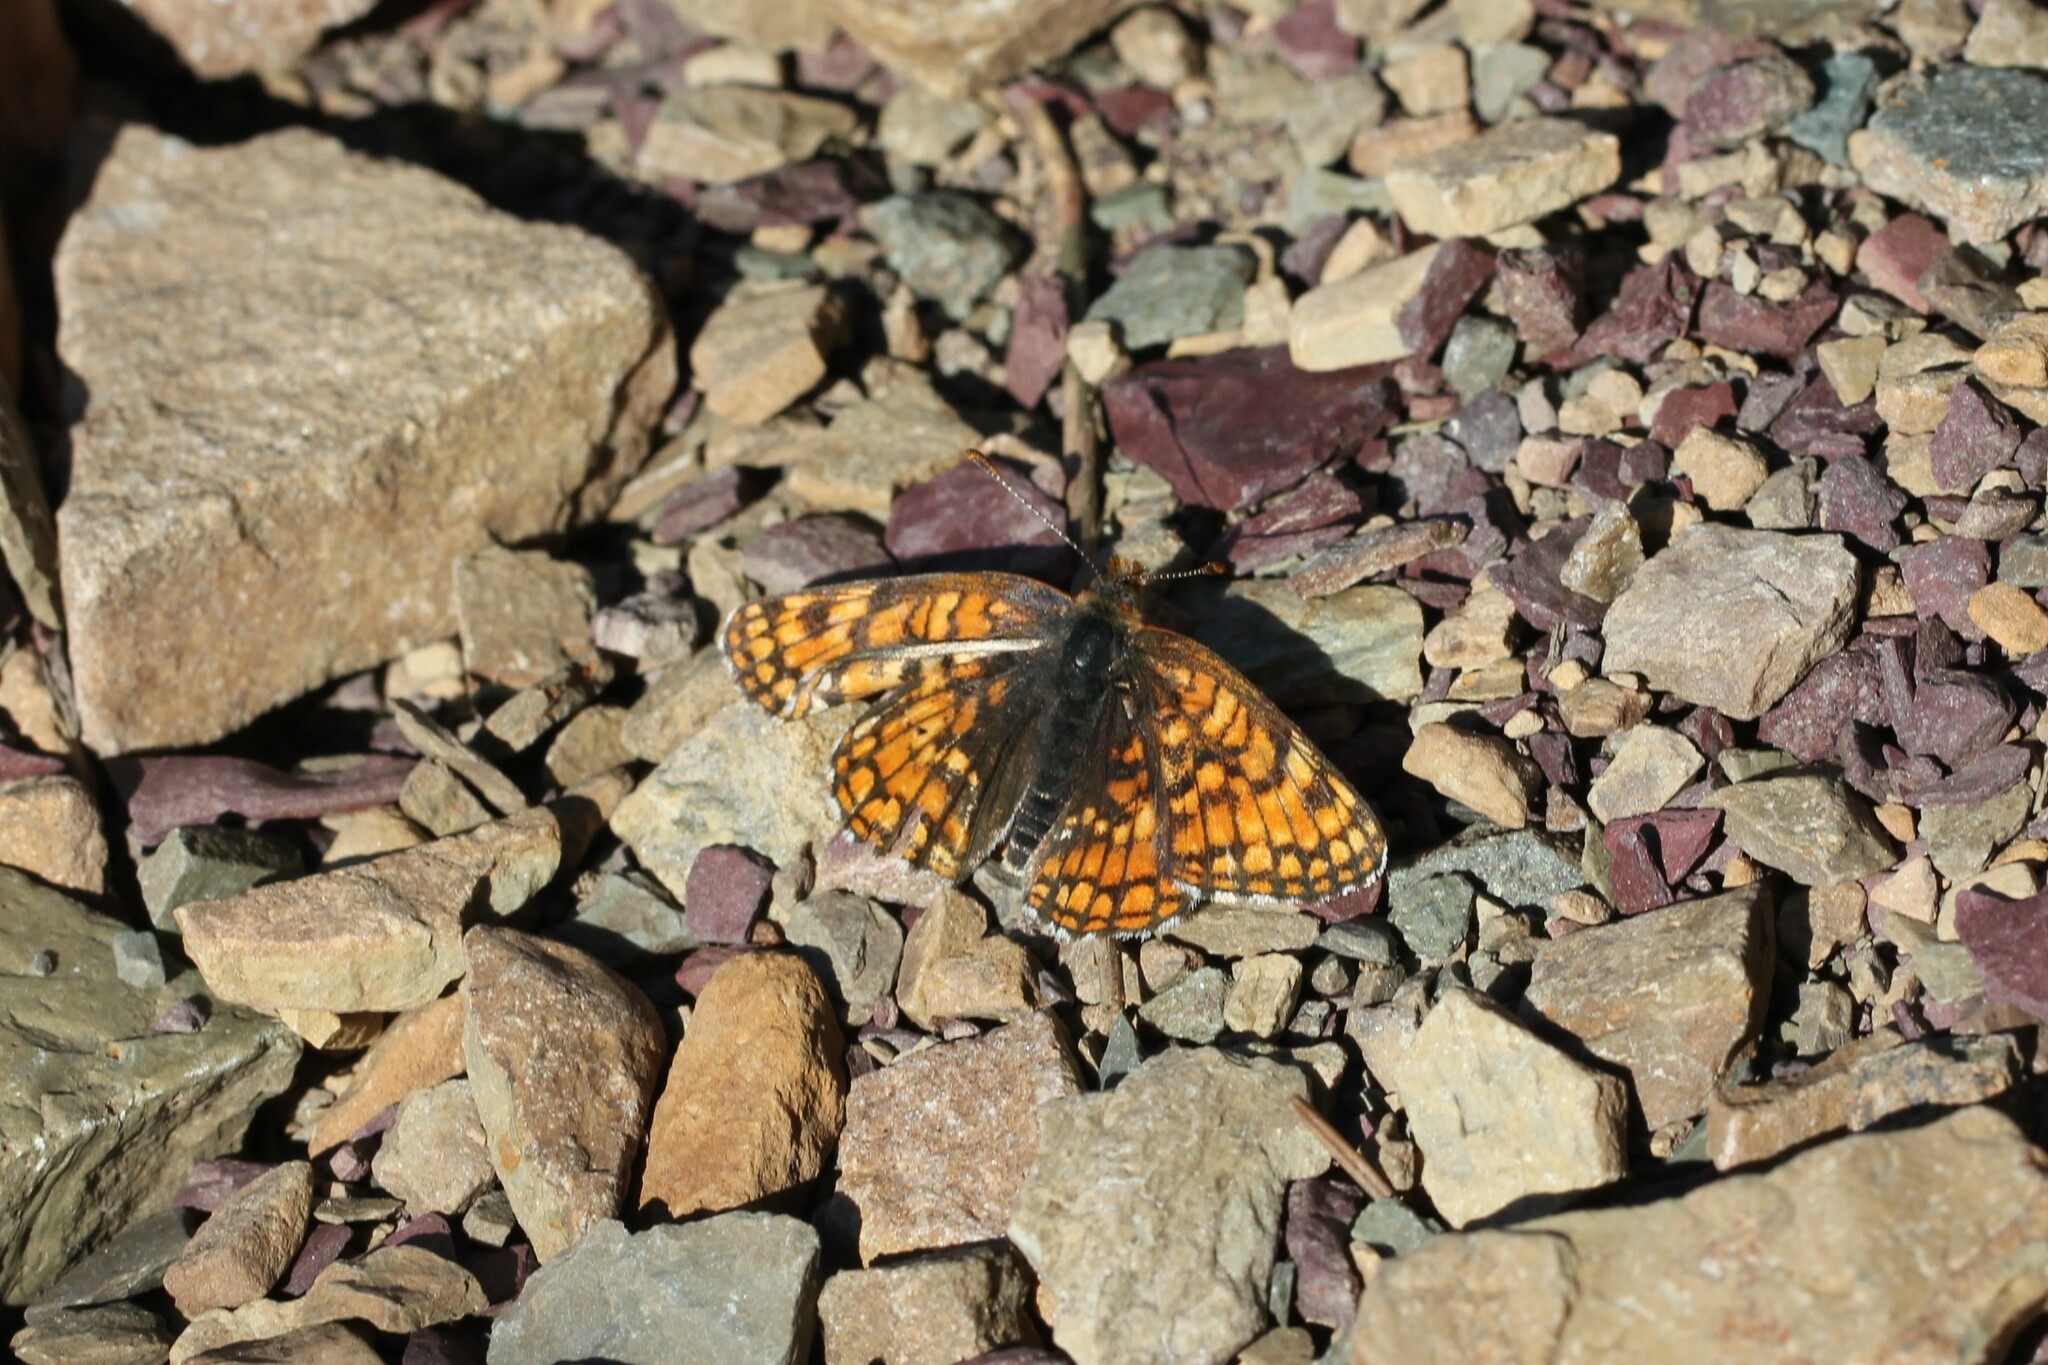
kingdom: Animalia
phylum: Arthropoda
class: Insecta
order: Lepidoptera
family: Nymphalidae
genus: Chlosyne
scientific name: Chlosyne damoetas
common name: Rockslide checkerspot
